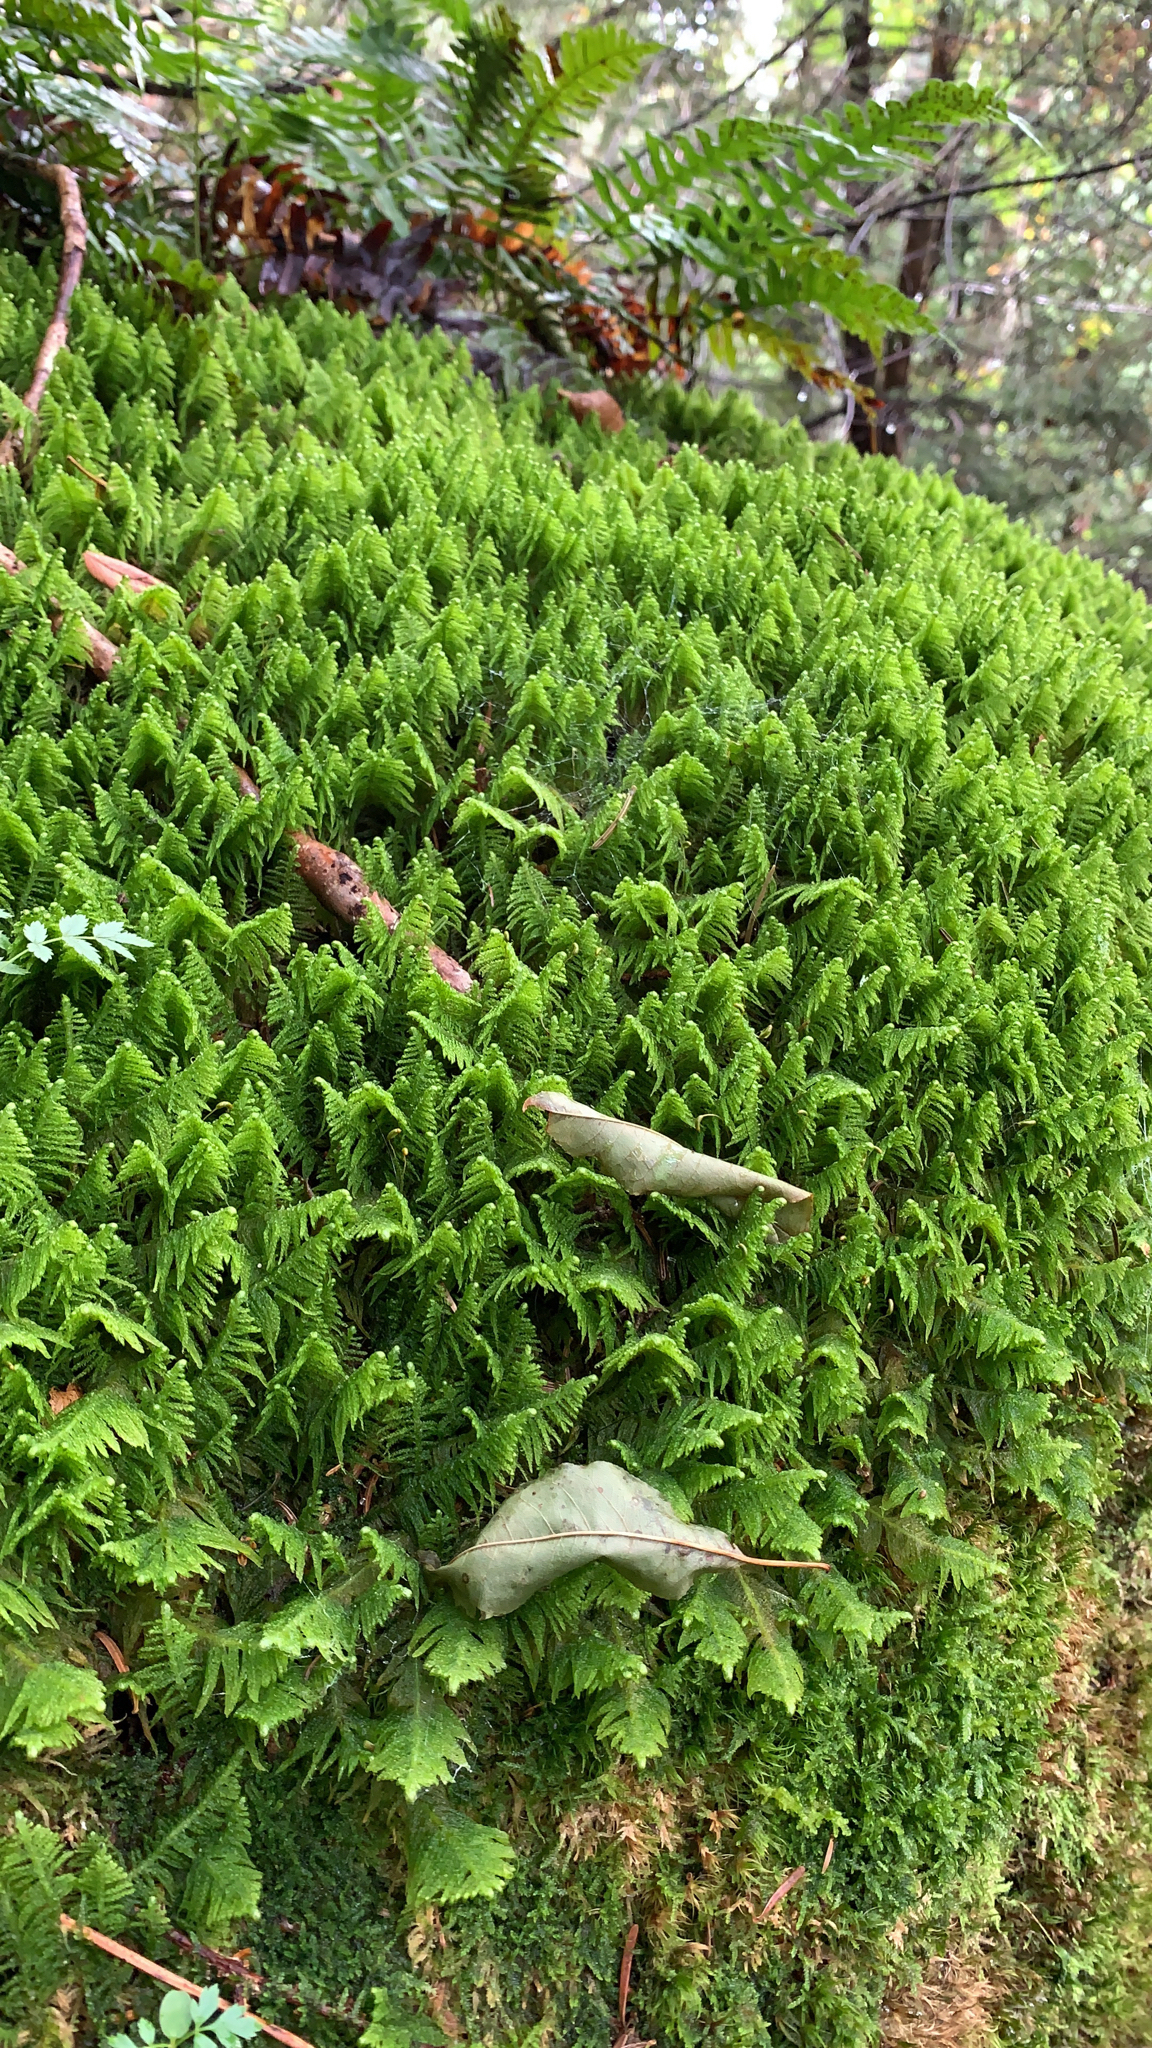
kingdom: Plantae
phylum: Bryophyta
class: Bryopsida
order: Hypnales
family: Pylaisiaceae
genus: Ptilium
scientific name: Ptilium crista-castrensis
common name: Knight's plume moss
